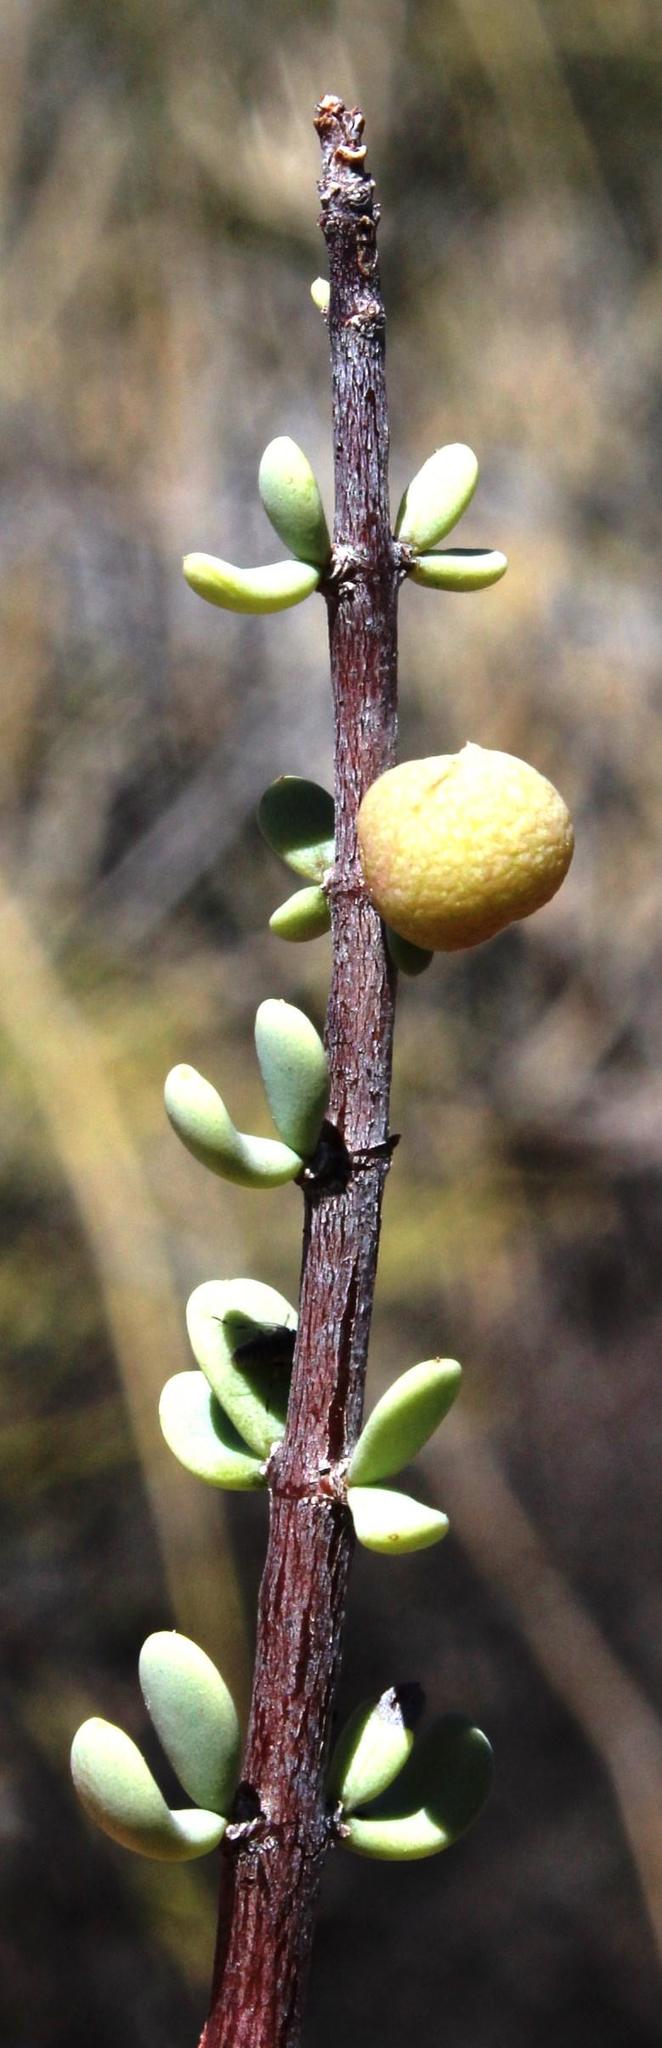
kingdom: Plantae
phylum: Tracheophyta
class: Magnoliopsida
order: Caryophyllales
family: Didiereaceae
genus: Portulacaria
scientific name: Portulacaria fruticulosa
